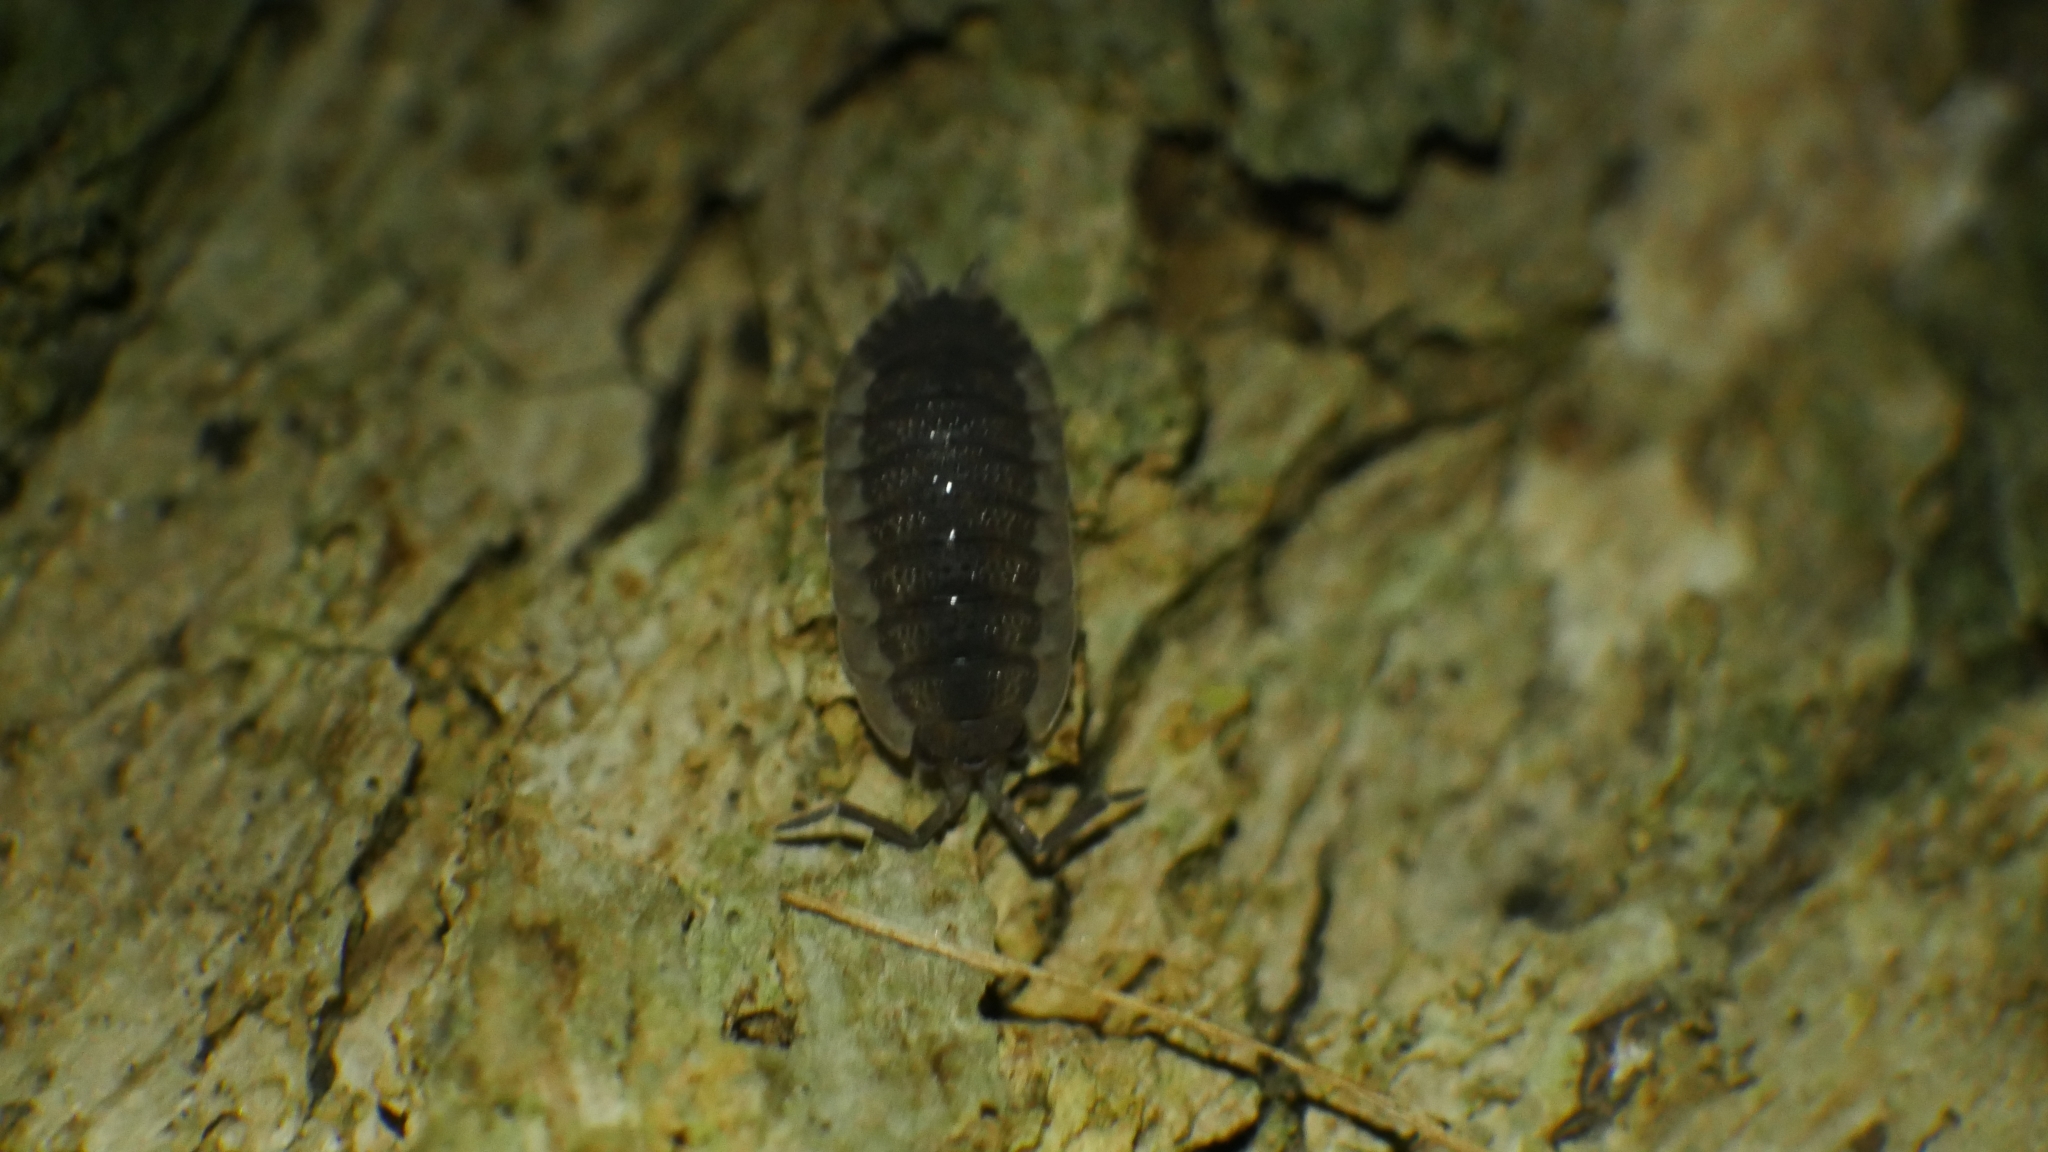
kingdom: Animalia
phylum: Arthropoda
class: Malacostraca
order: Isopoda
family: Porcellionidae
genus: Porcellio
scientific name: Porcellio scaber
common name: Common rough woodlouse
